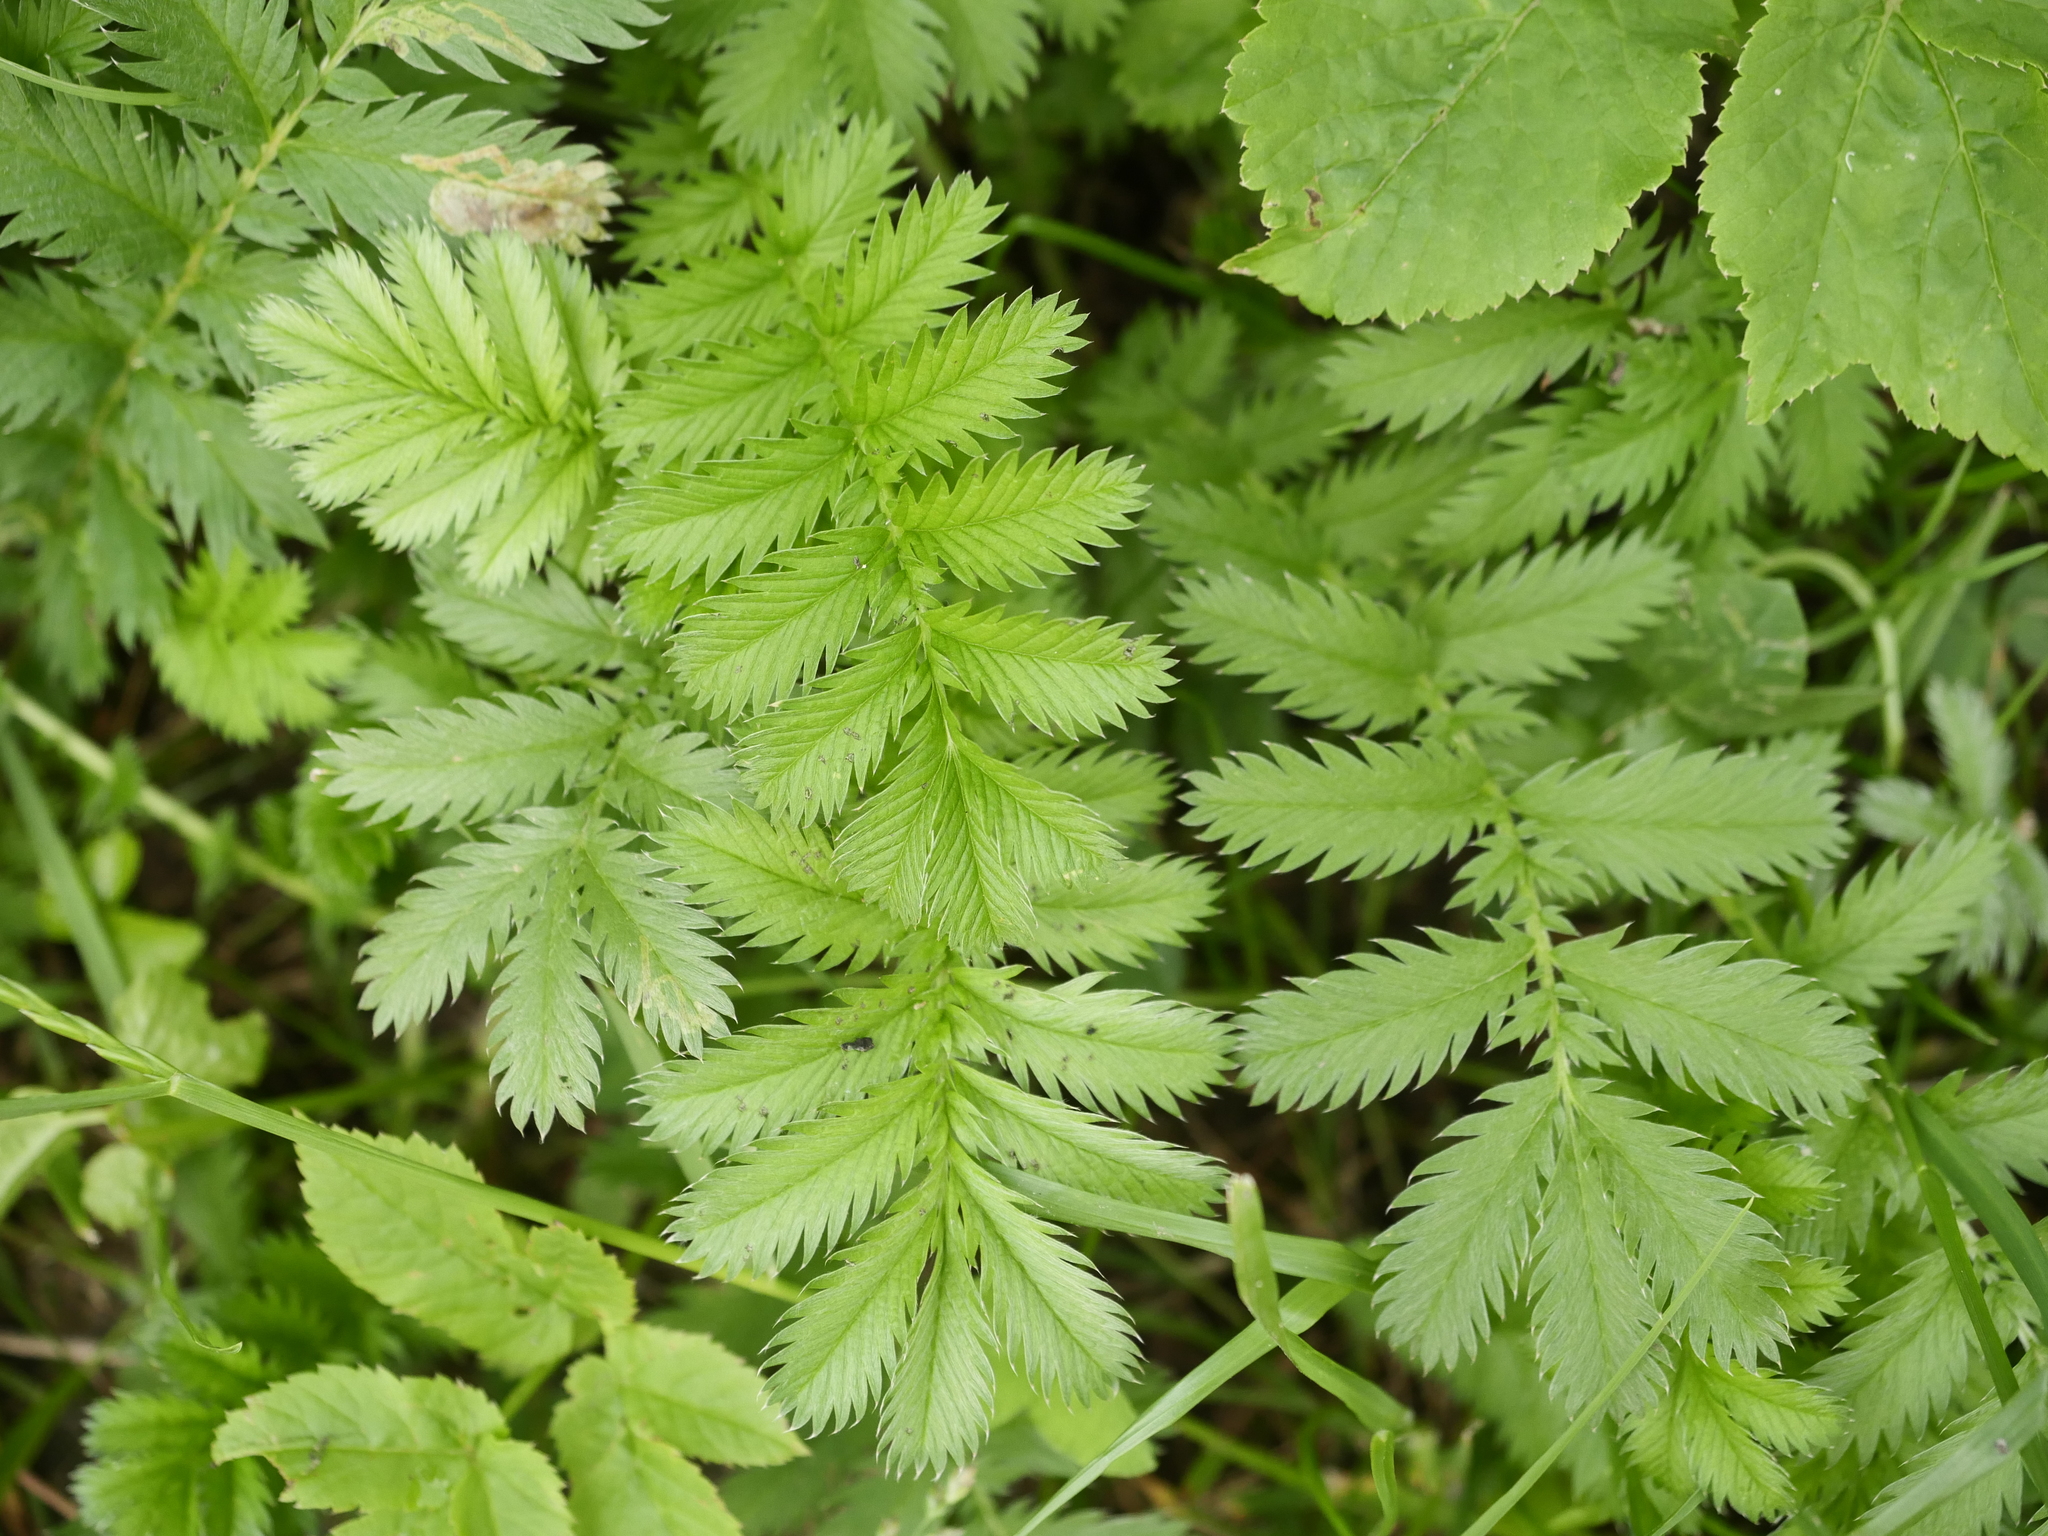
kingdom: Plantae
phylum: Tracheophyta
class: Magnoliopsida
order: Rosales
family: Rosaceae
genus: Argentina
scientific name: Argentina anserina
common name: Common silverweed
